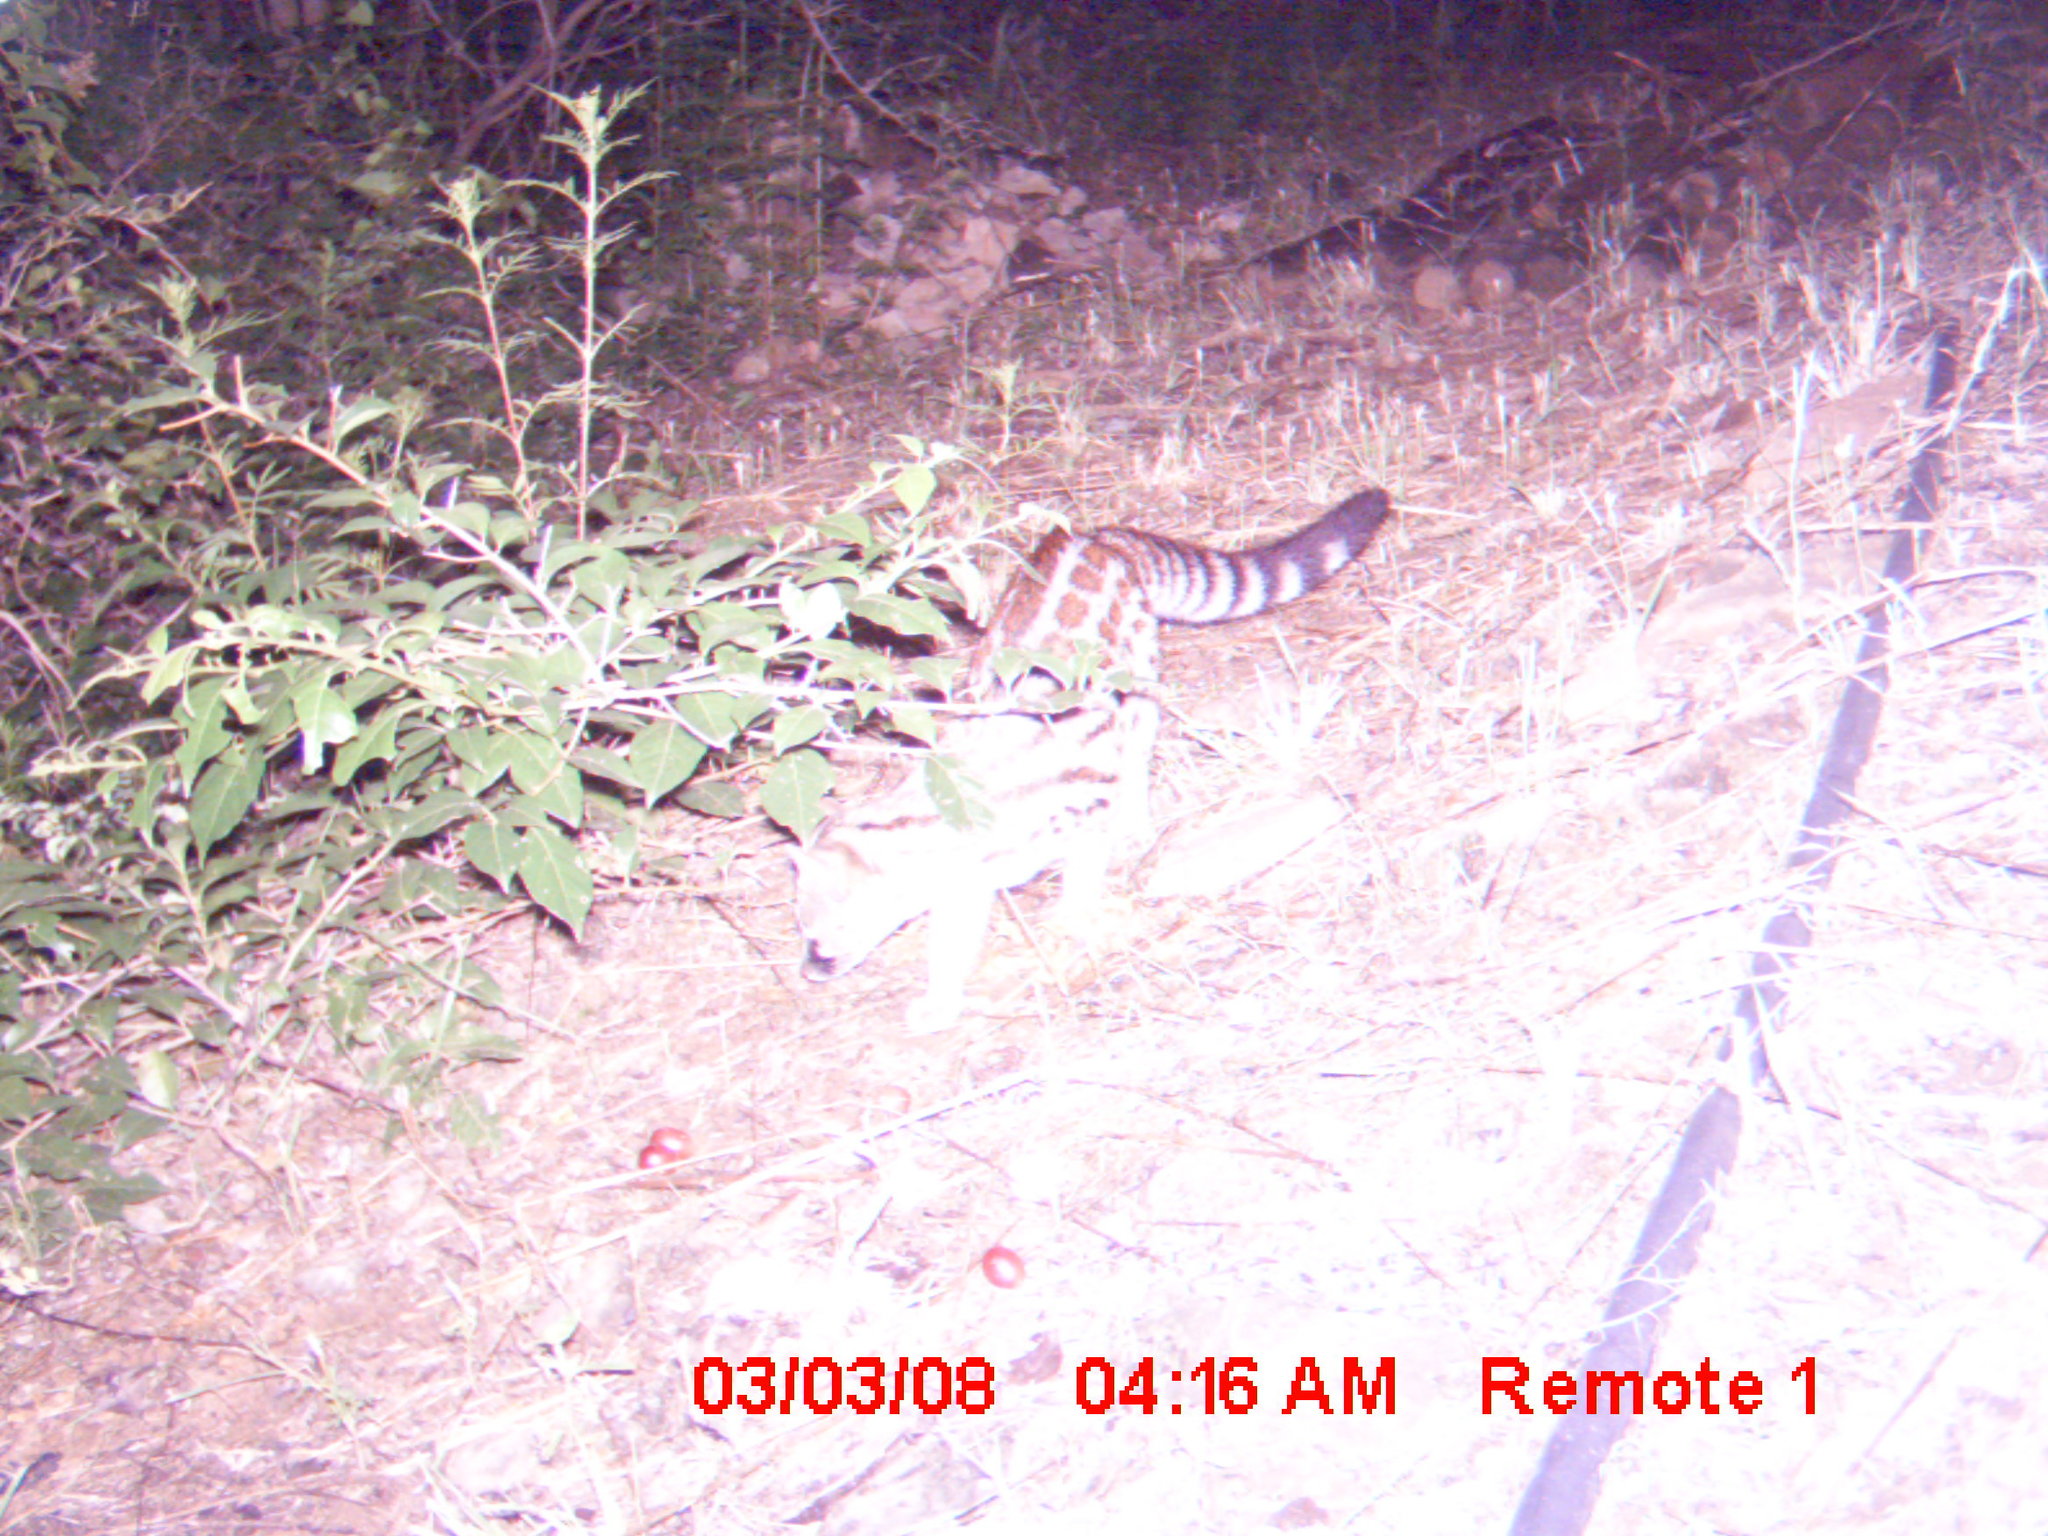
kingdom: Animalia
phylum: Chordata
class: Mammalia
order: Carnivora
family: Viverridae
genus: Genetta
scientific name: Genetta maculata
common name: Rusty-spotted genet
